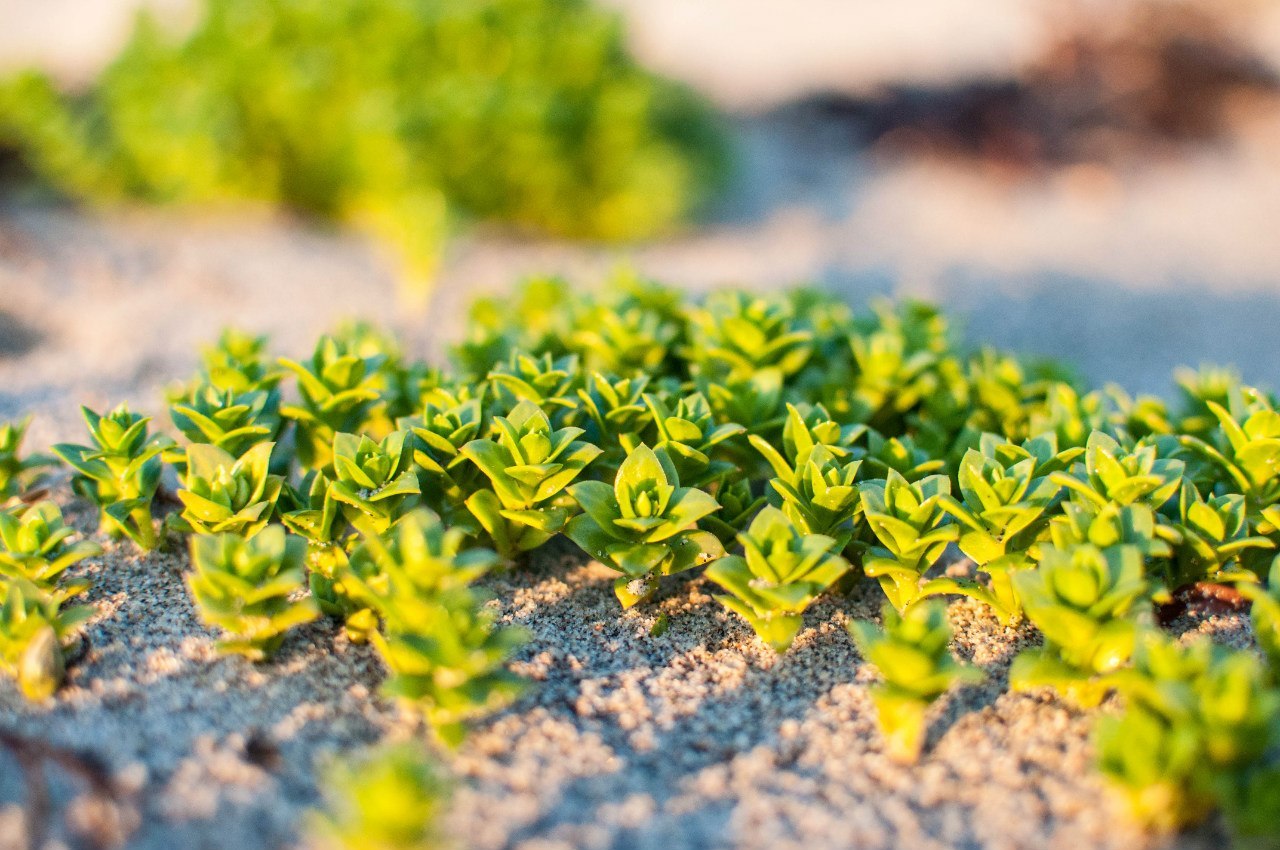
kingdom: Plantae
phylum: Tracheophyta
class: Magnoliopsida
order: Caryophyllales
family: Caryophyllaceae
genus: Honckenya
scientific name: Honckenya peploides
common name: Sea sandwort
